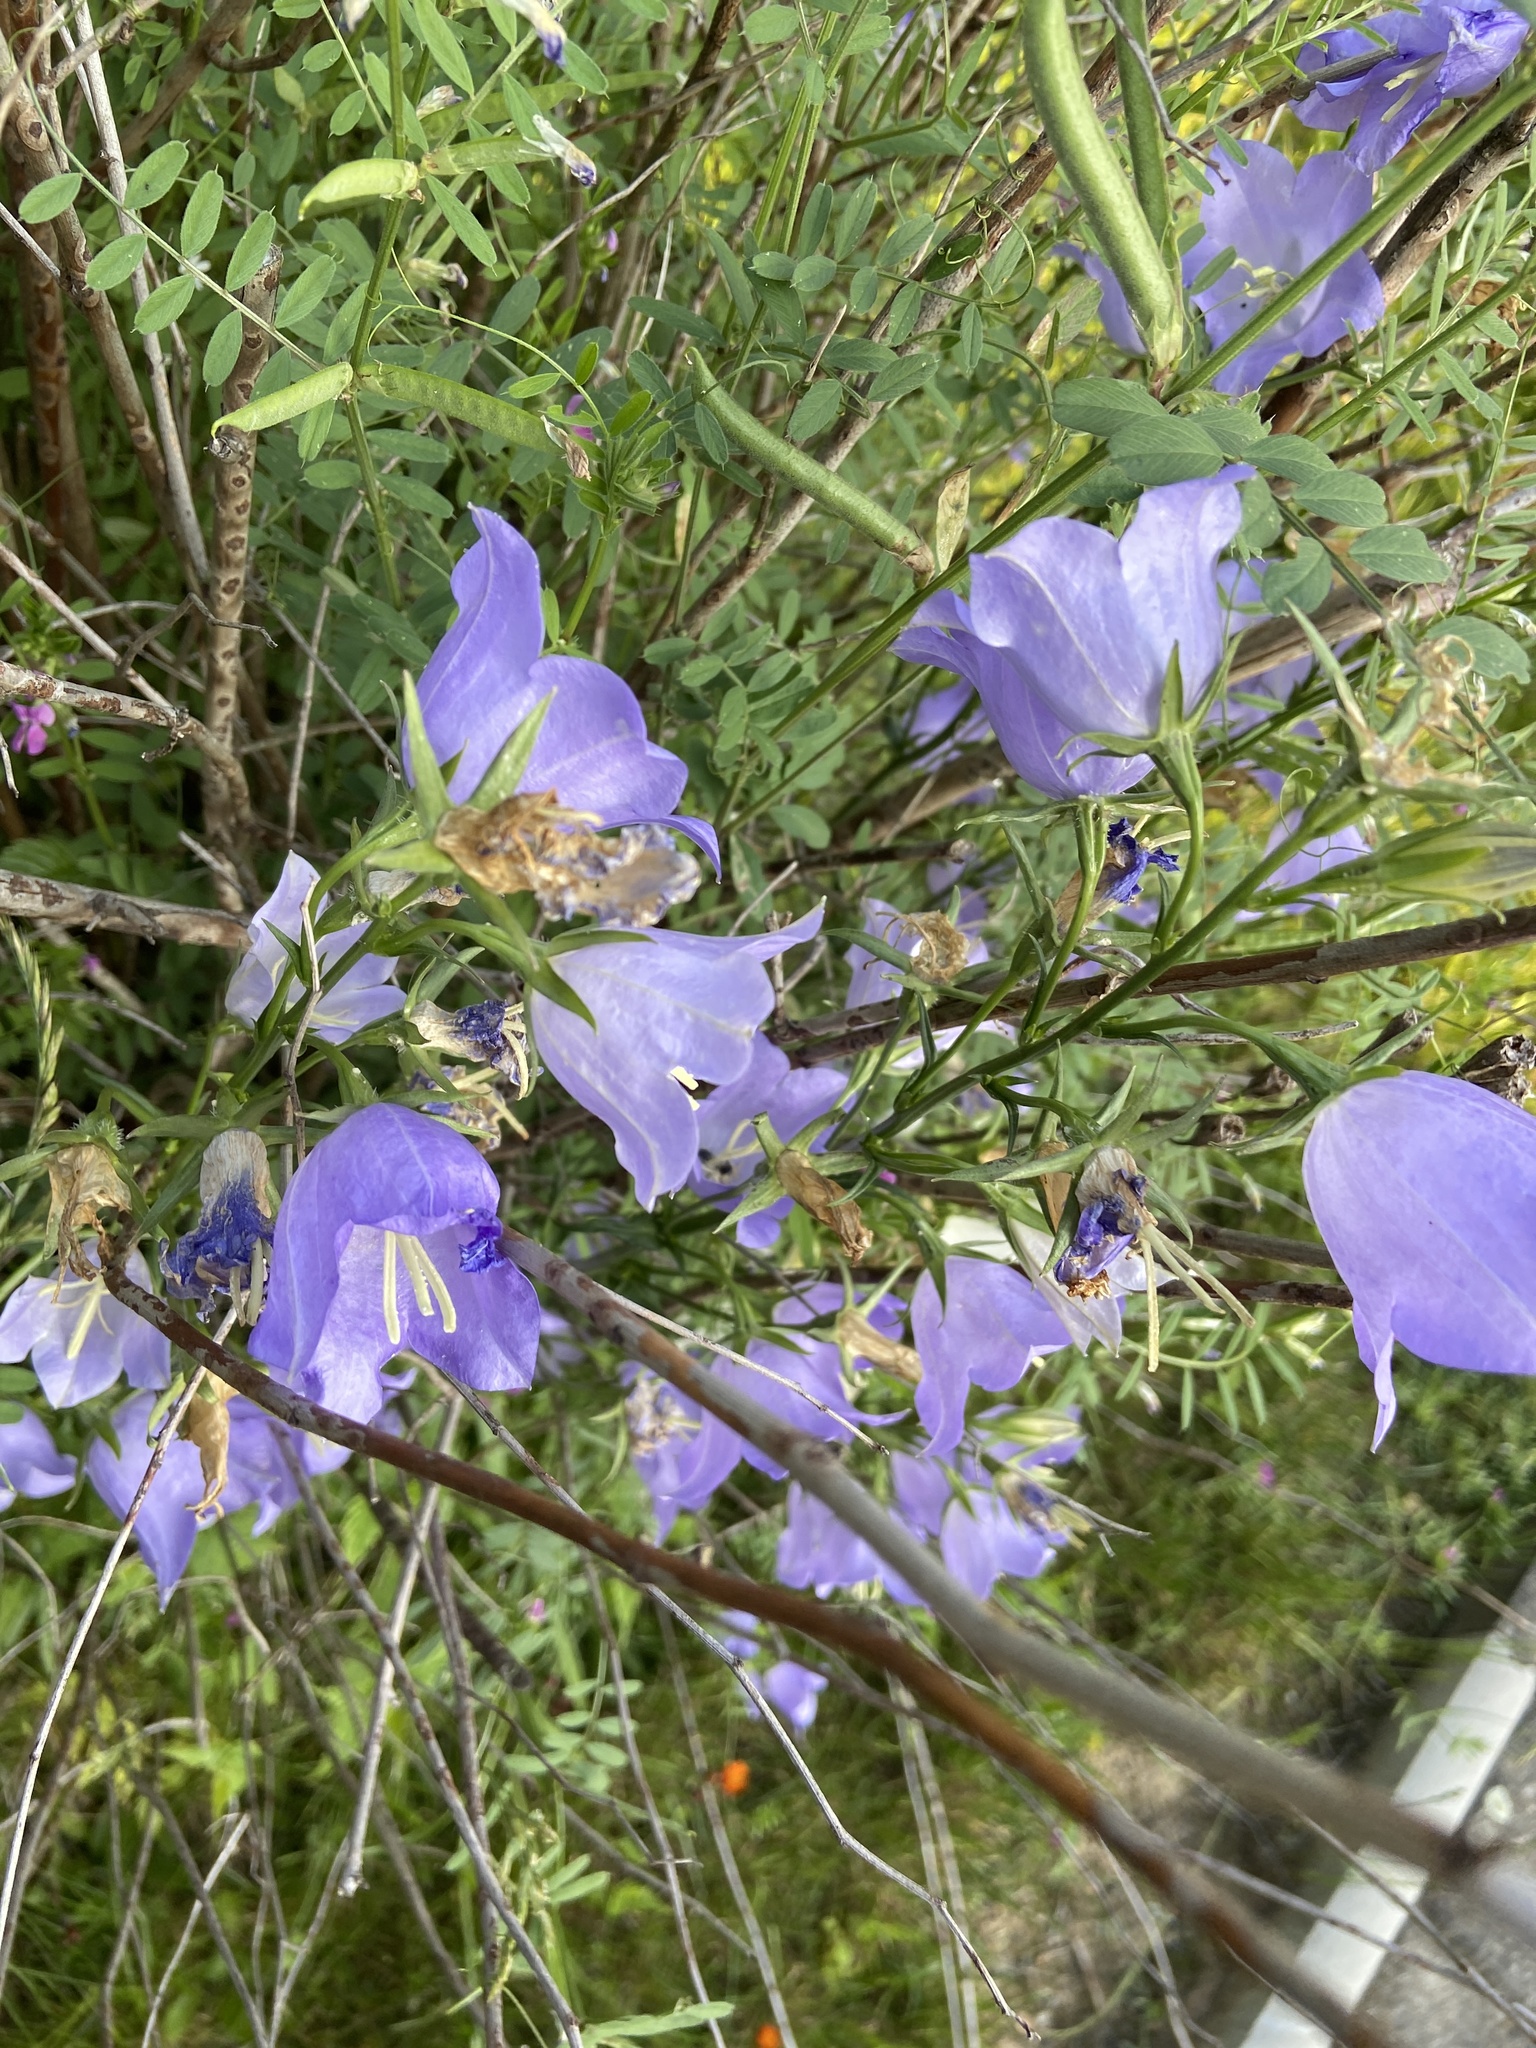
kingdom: Plantae
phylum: Tracheophyta
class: Magnoliopsida
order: Asterales
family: Campanulaceae
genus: Campanula
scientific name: Campanula persicifolia
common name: Peach-leaved bellflower
